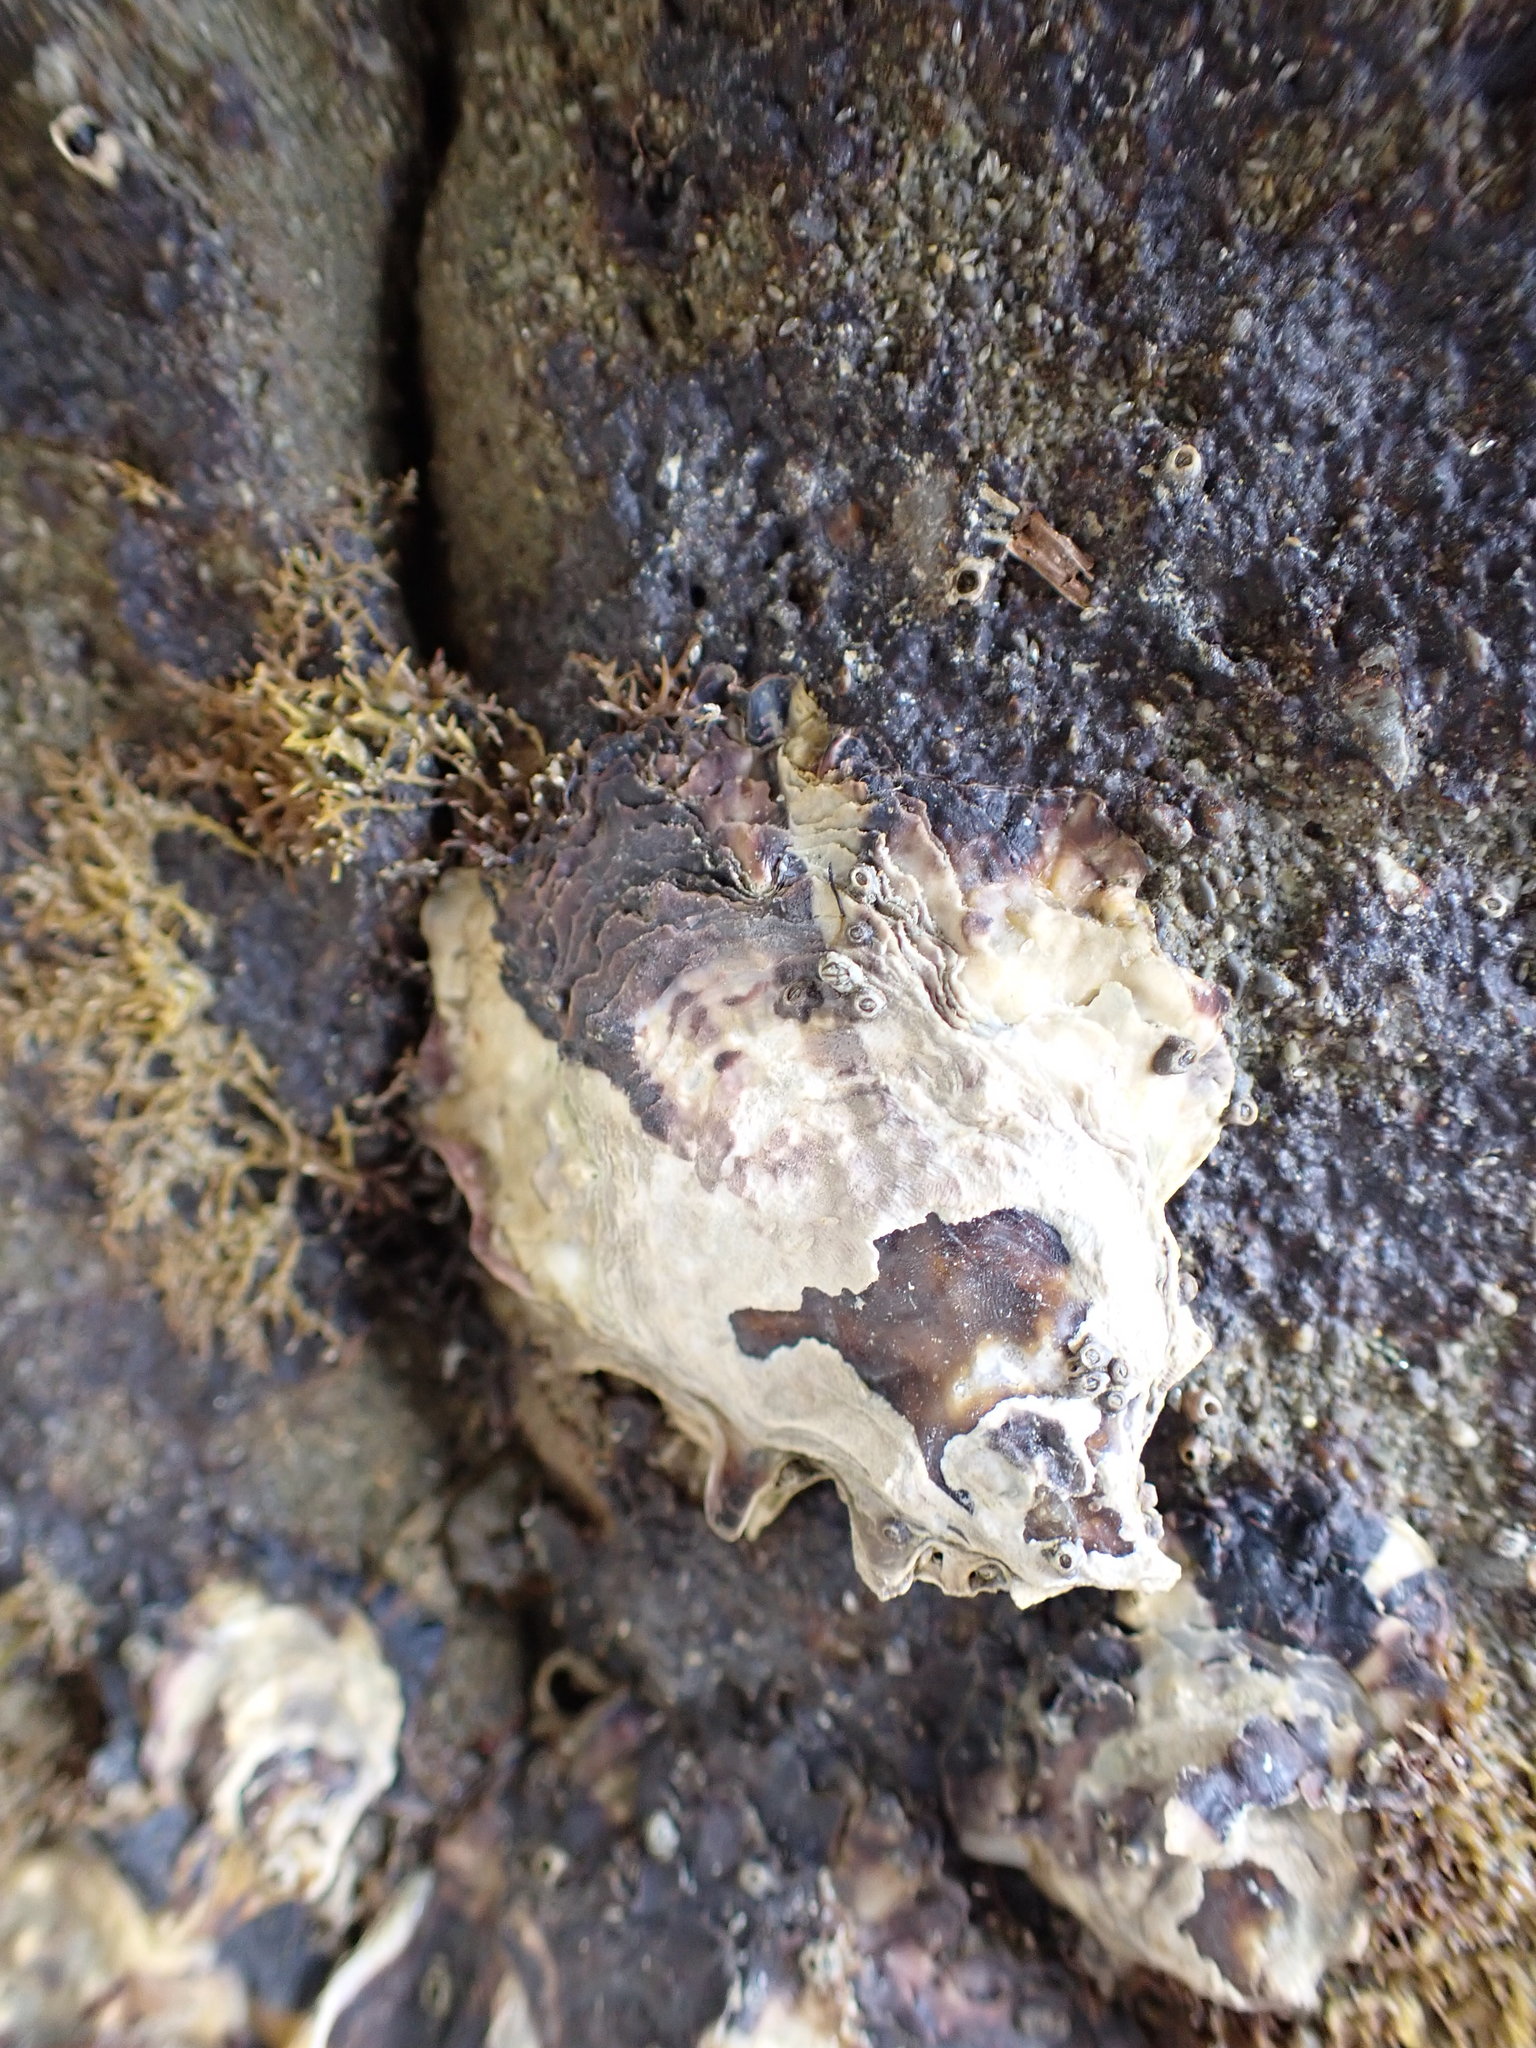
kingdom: Animalia
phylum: Mollusca
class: Bivalvia
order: Ostreida
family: Ostreidae
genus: Magallana
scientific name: Magallana gigas
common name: Pacific oyster
